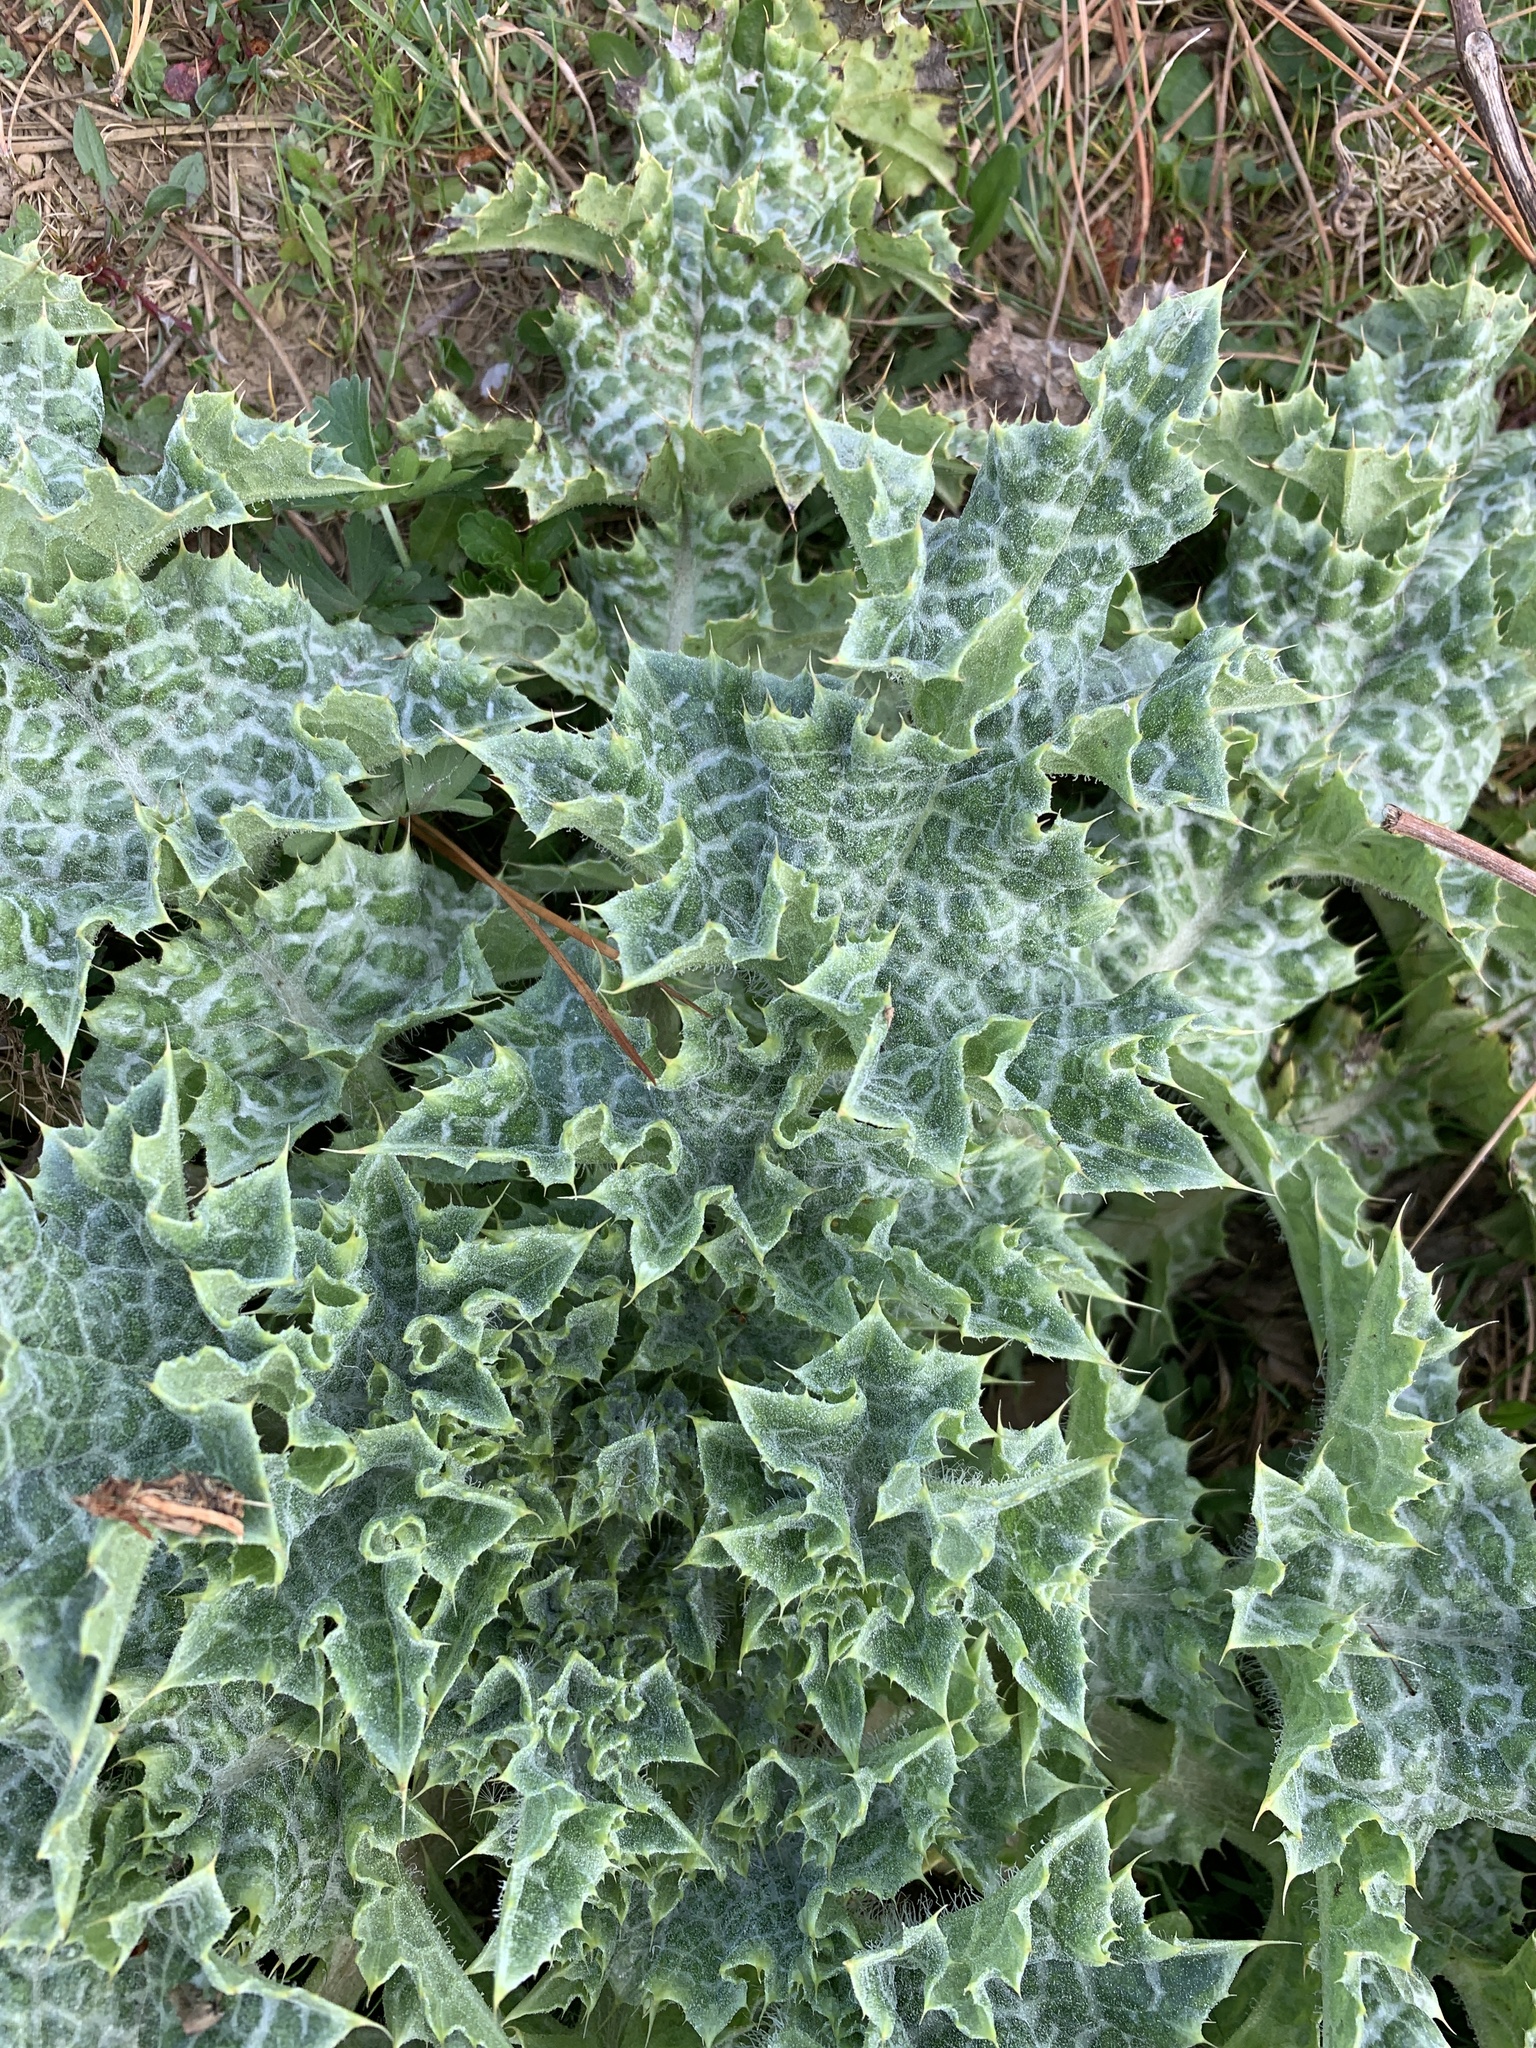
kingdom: Plantae
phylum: Tracheophyta
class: Magnoliopsida
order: Asterales
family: Asteraceae
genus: Silybum
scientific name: Silybum marianum
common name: Milk thistle
